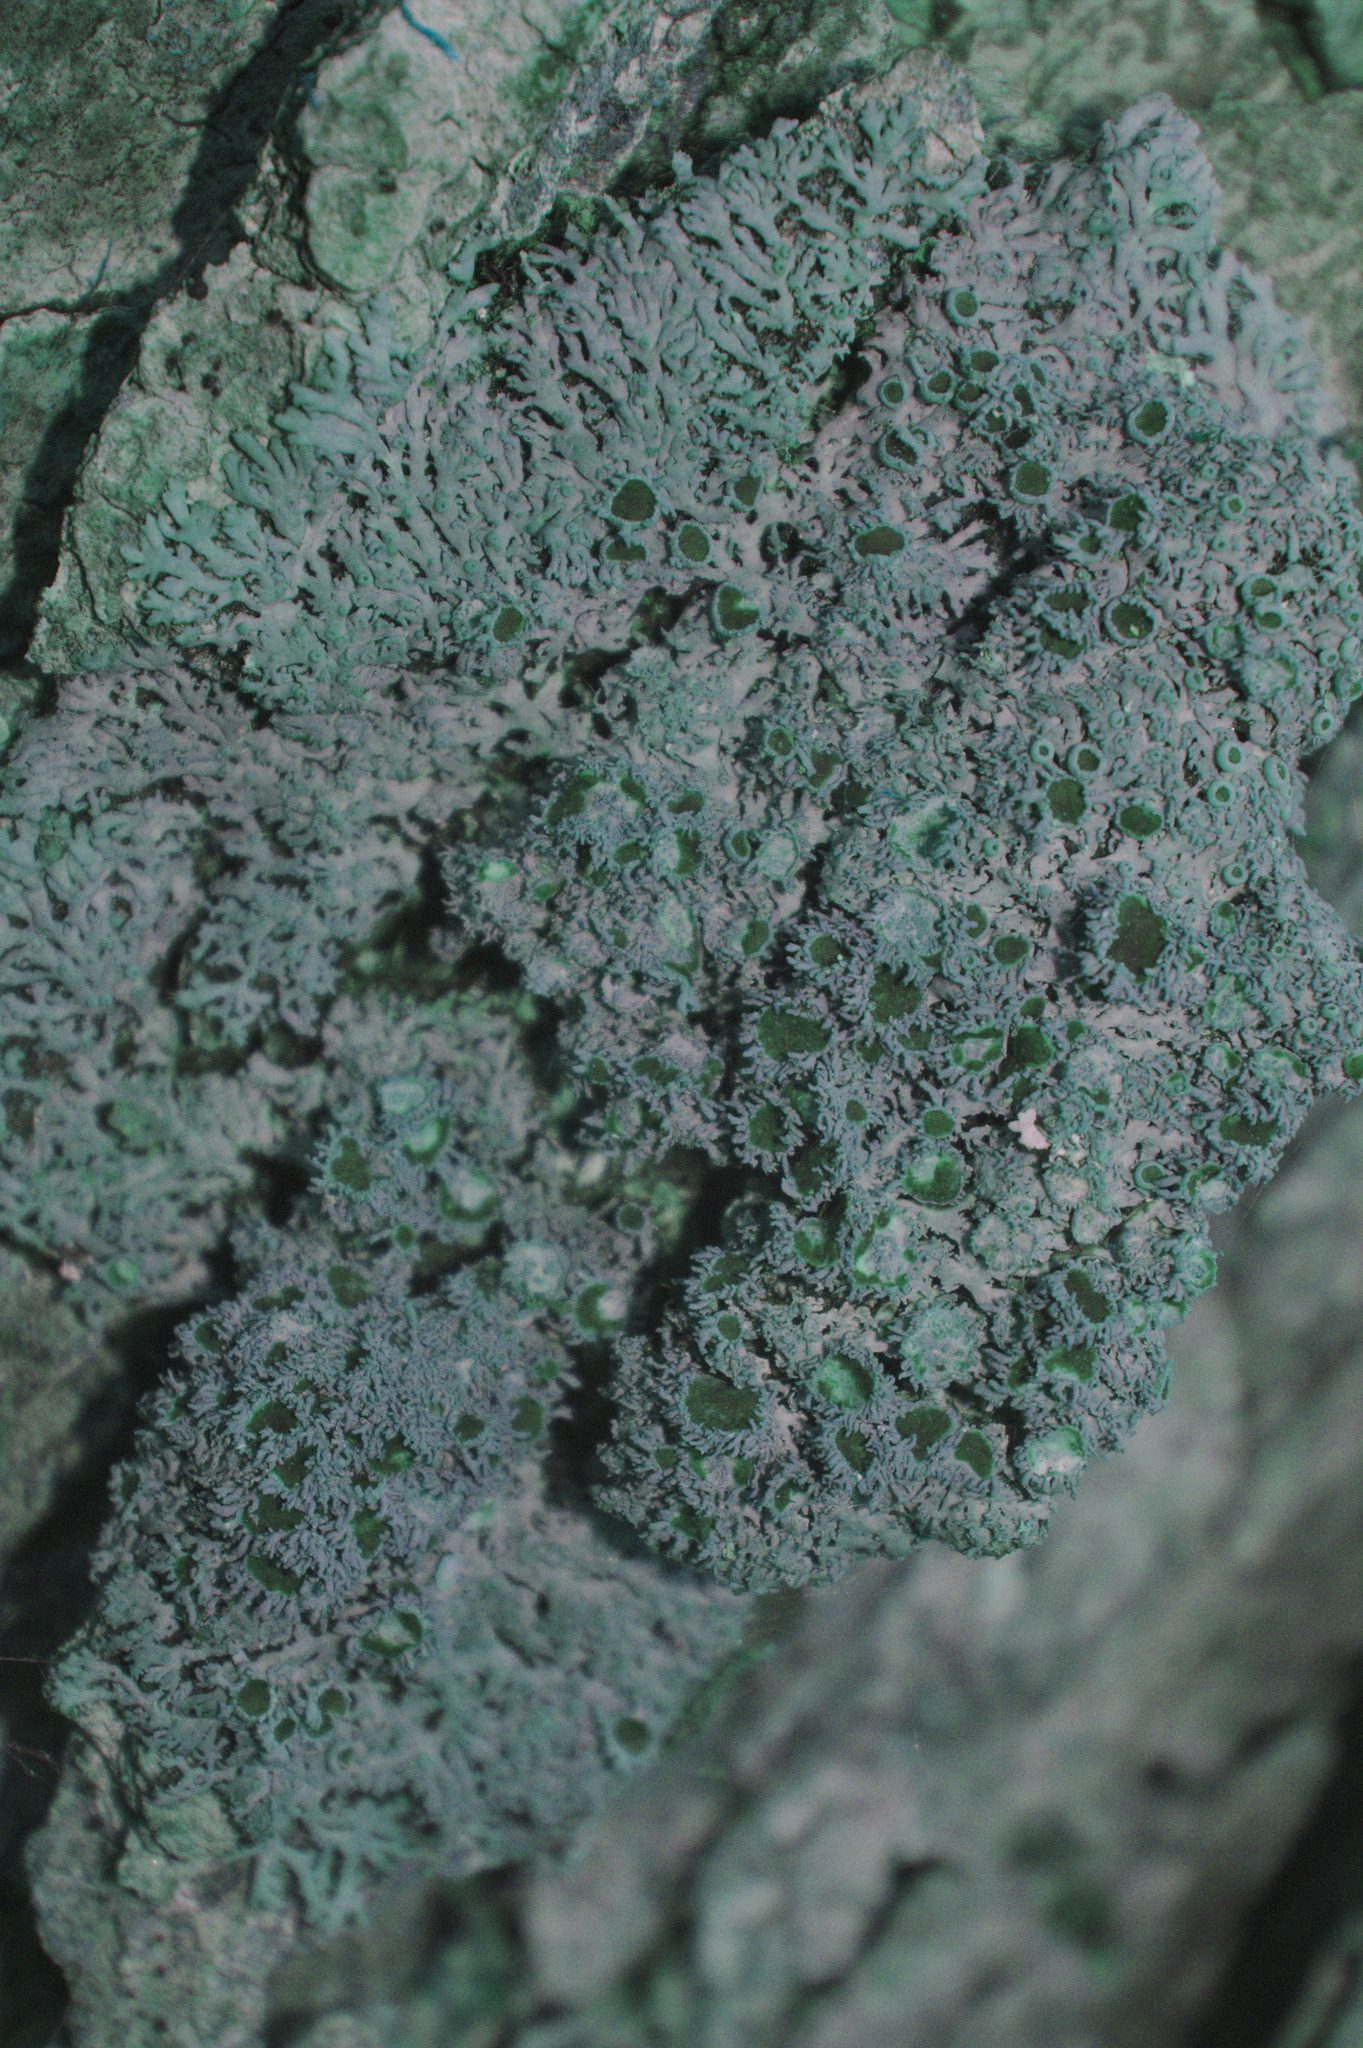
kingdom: Fungi
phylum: Ascomycota
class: Lecanoromycetes
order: Caliciales
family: Physciaceae
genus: Kurokawia
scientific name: Kurokawia palmulata
